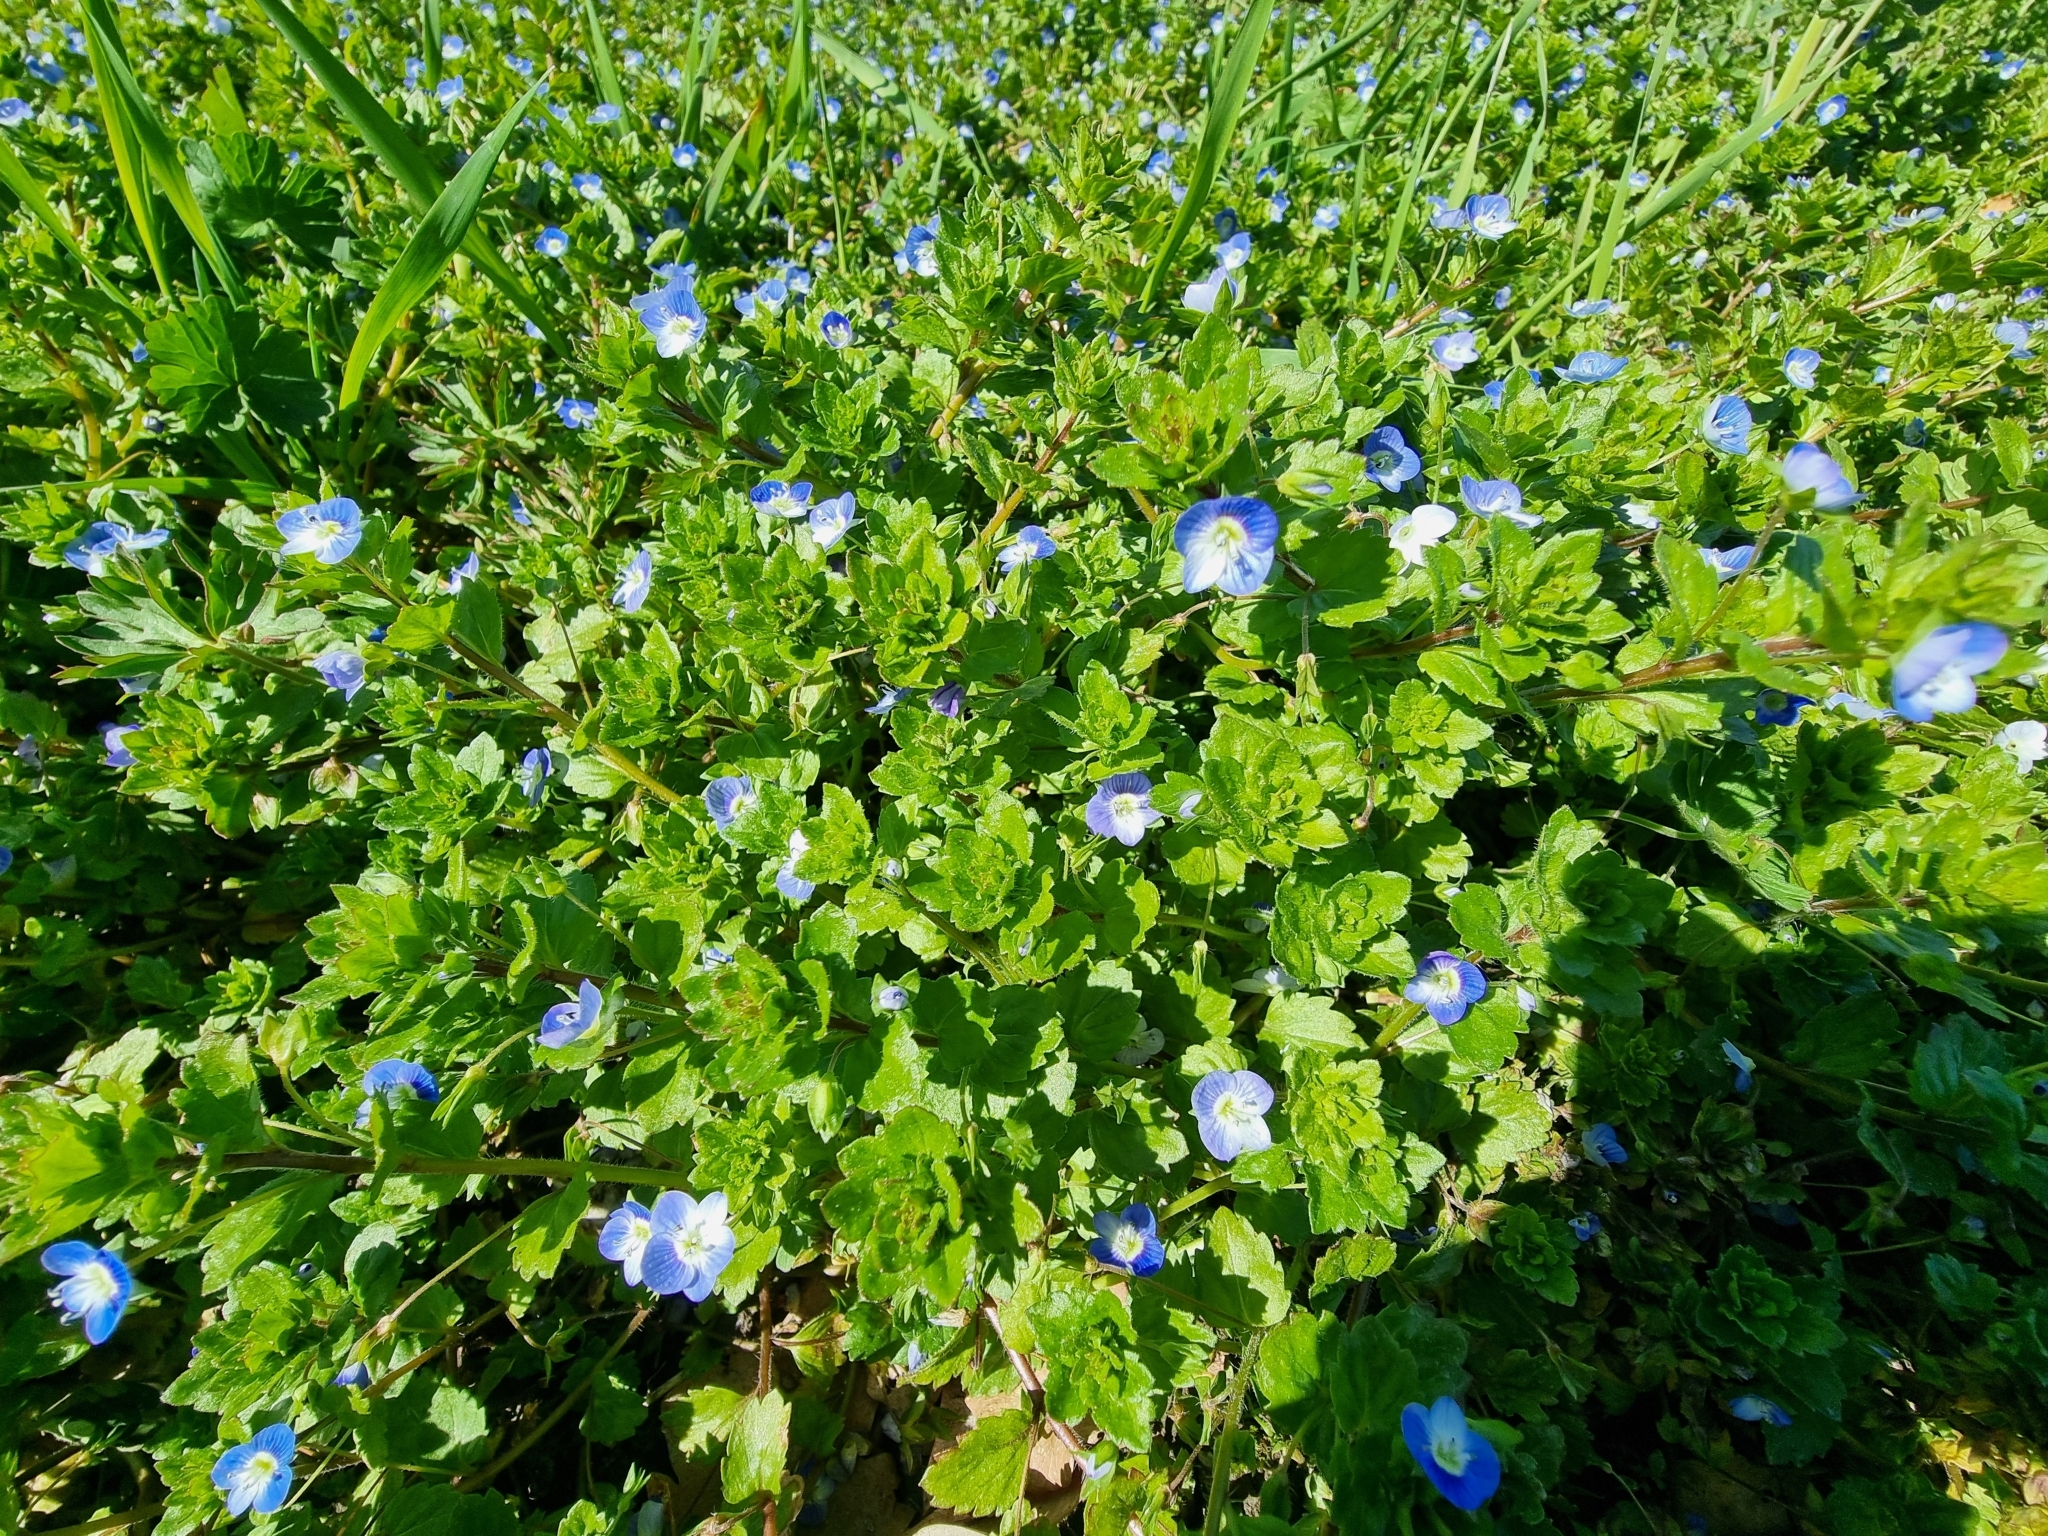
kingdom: Plantae
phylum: Tracheophyta
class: Magnoliopsida
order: Lamiales
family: Plantaginaceae
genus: Veronica
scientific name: Veronica persica
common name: Common field-speedwell
